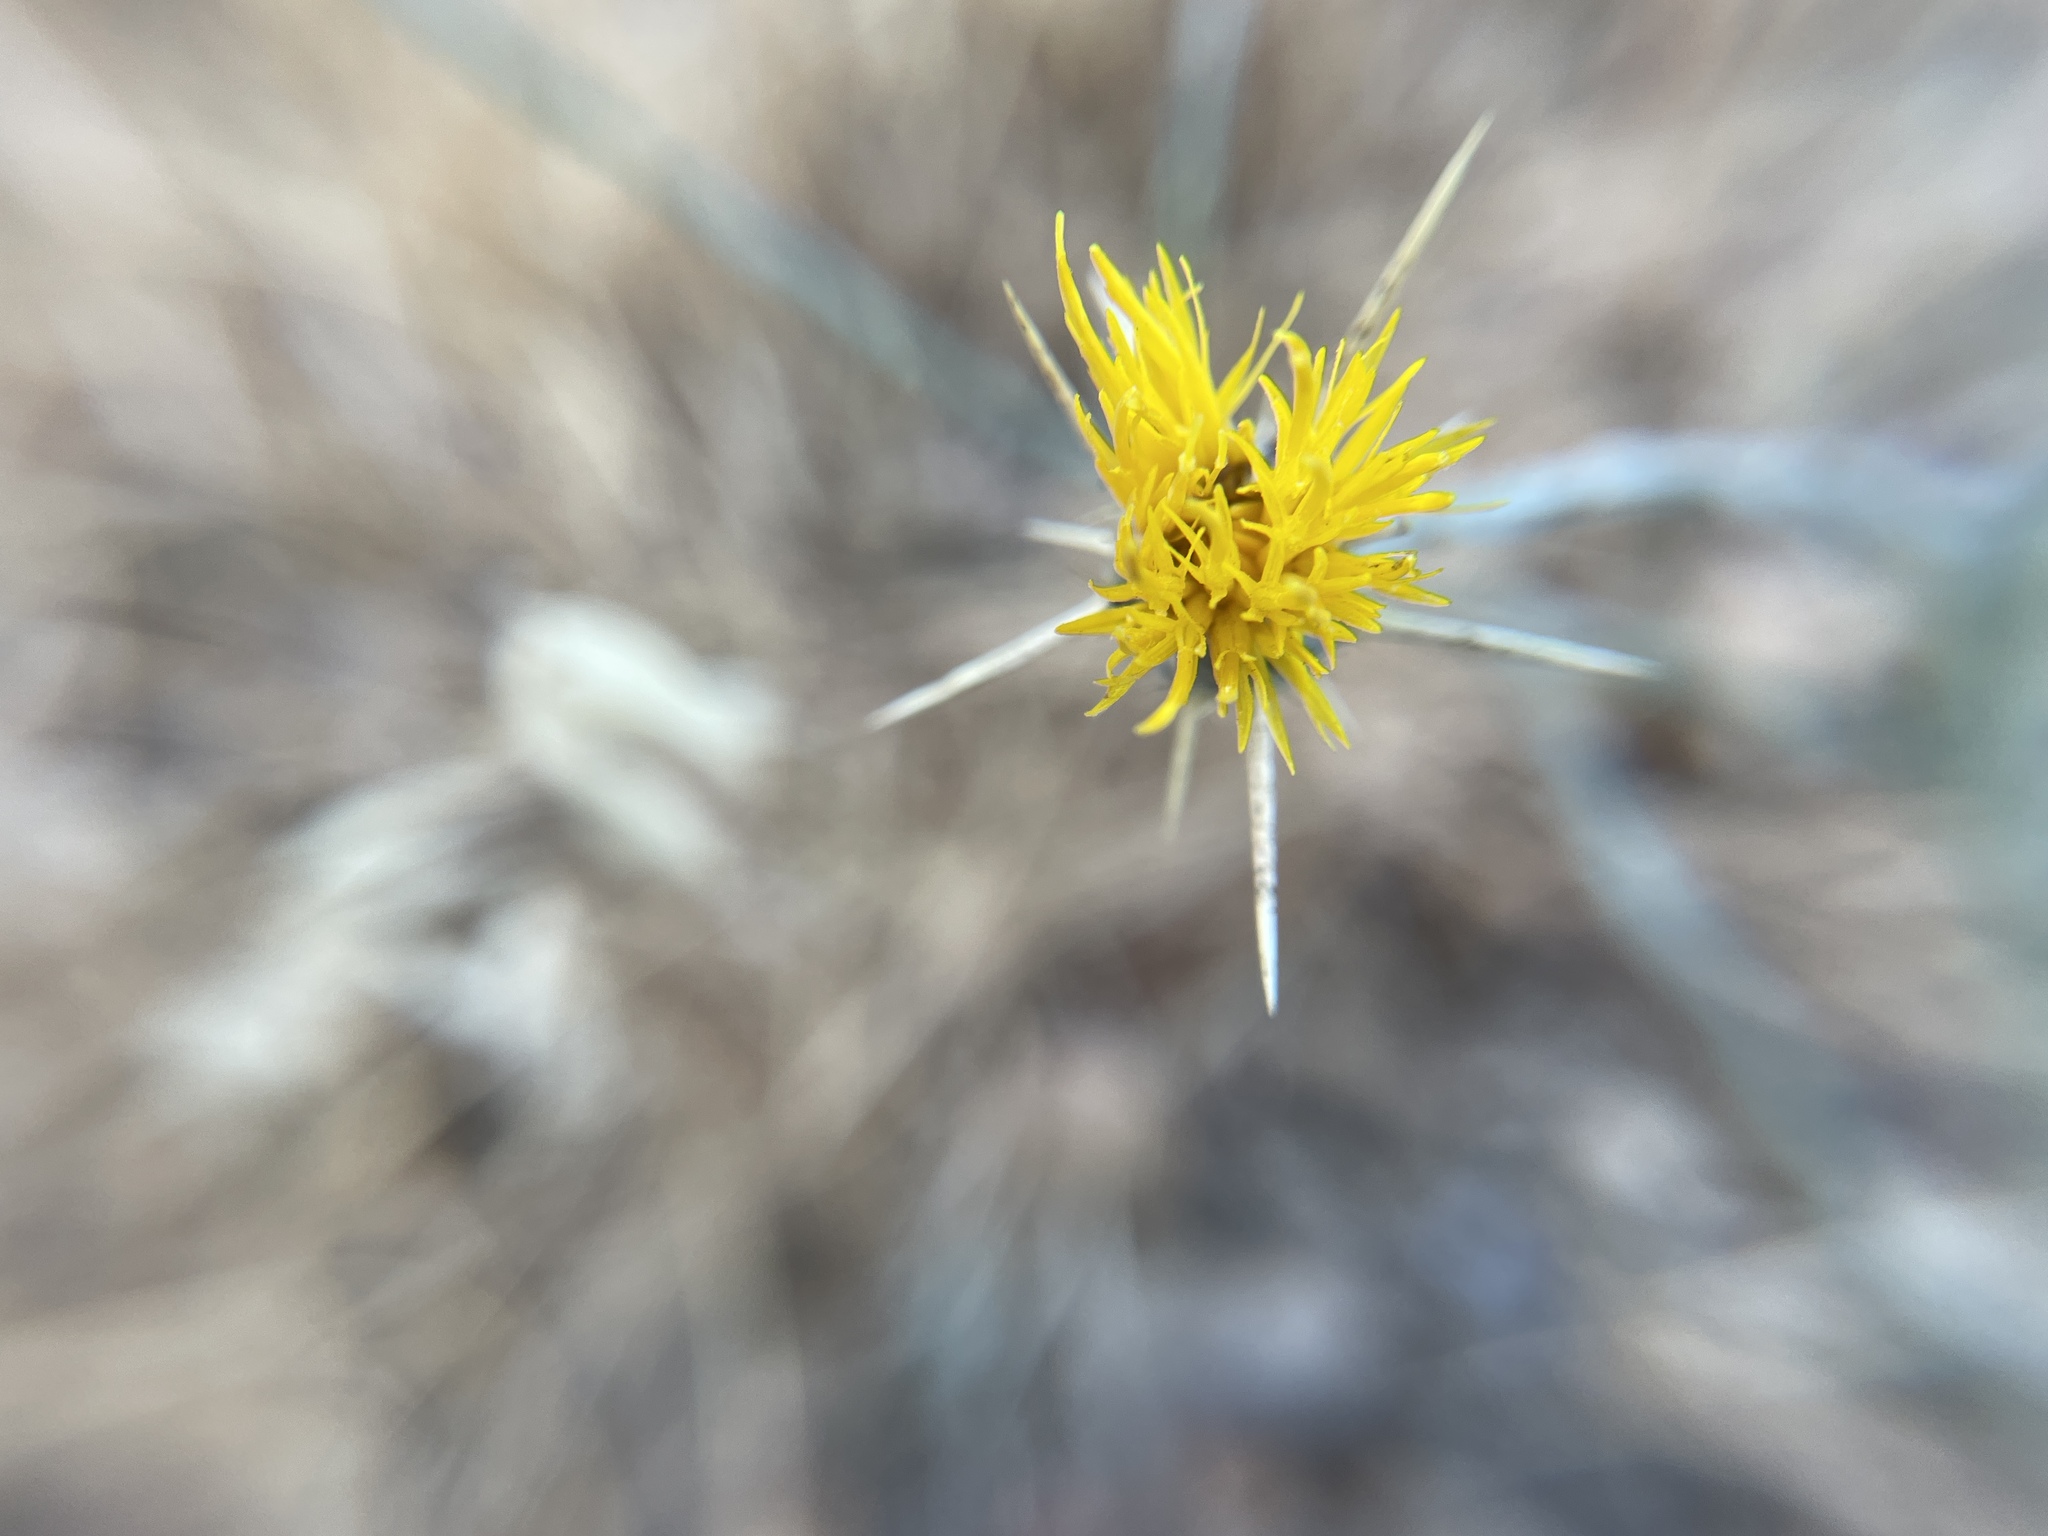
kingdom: Plantae
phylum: Tracheophyta
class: Magnoliopsida
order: Asterales
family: Asteraceae
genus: Centaurea
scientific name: Centaurea solstitialis
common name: Yellow star-thistle
